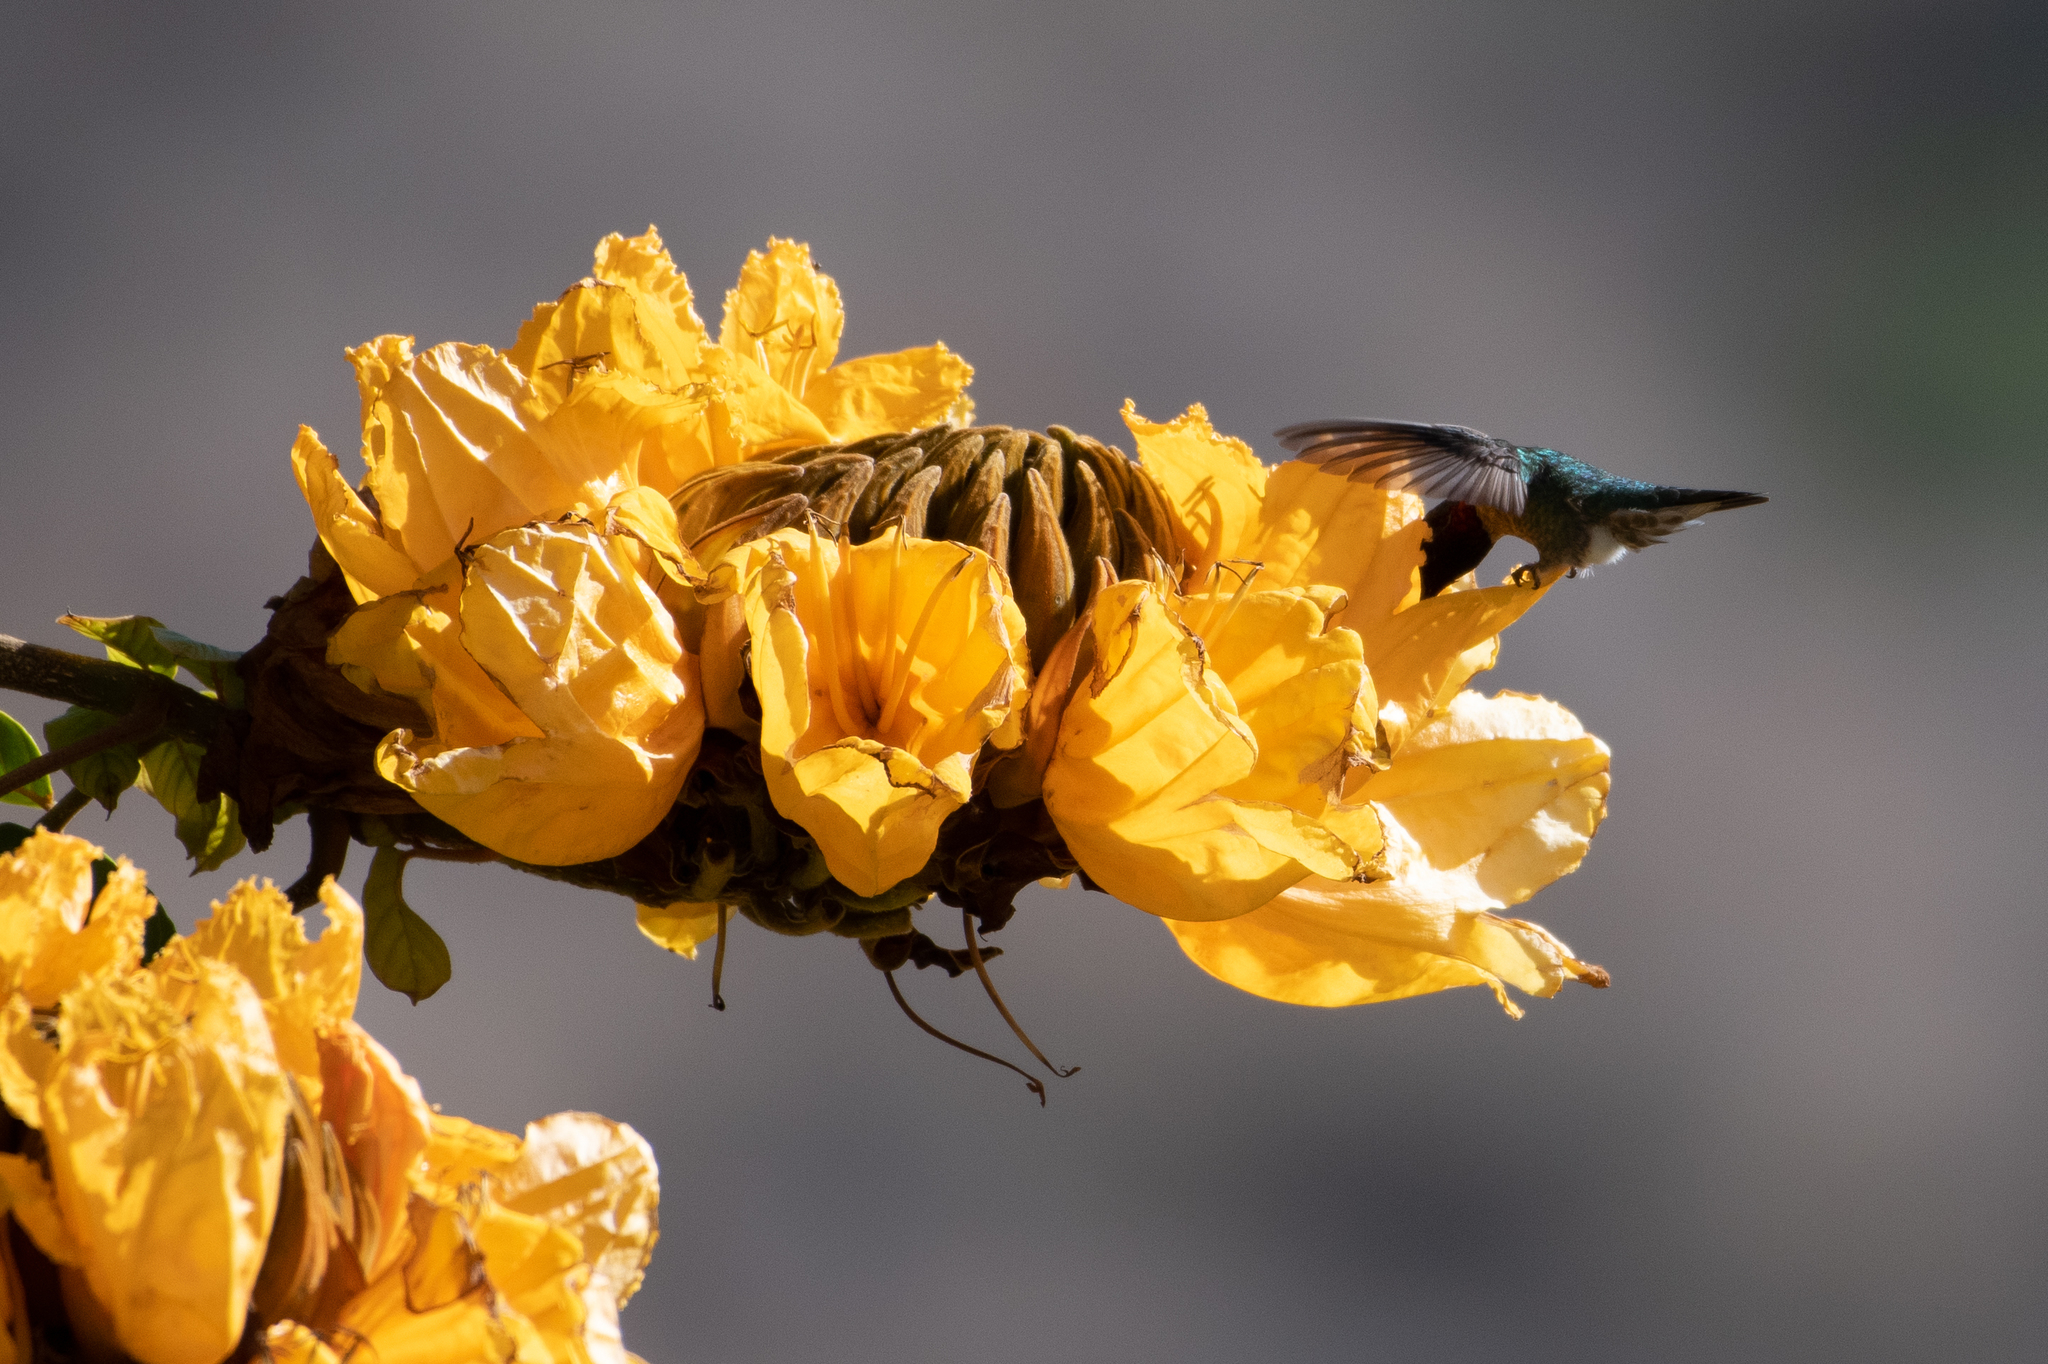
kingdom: Animalia
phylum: Chordata
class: Aves
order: Apodiformes
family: Trochilidae
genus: Calypte
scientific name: Calypte anna
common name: Anna's hummingbird
